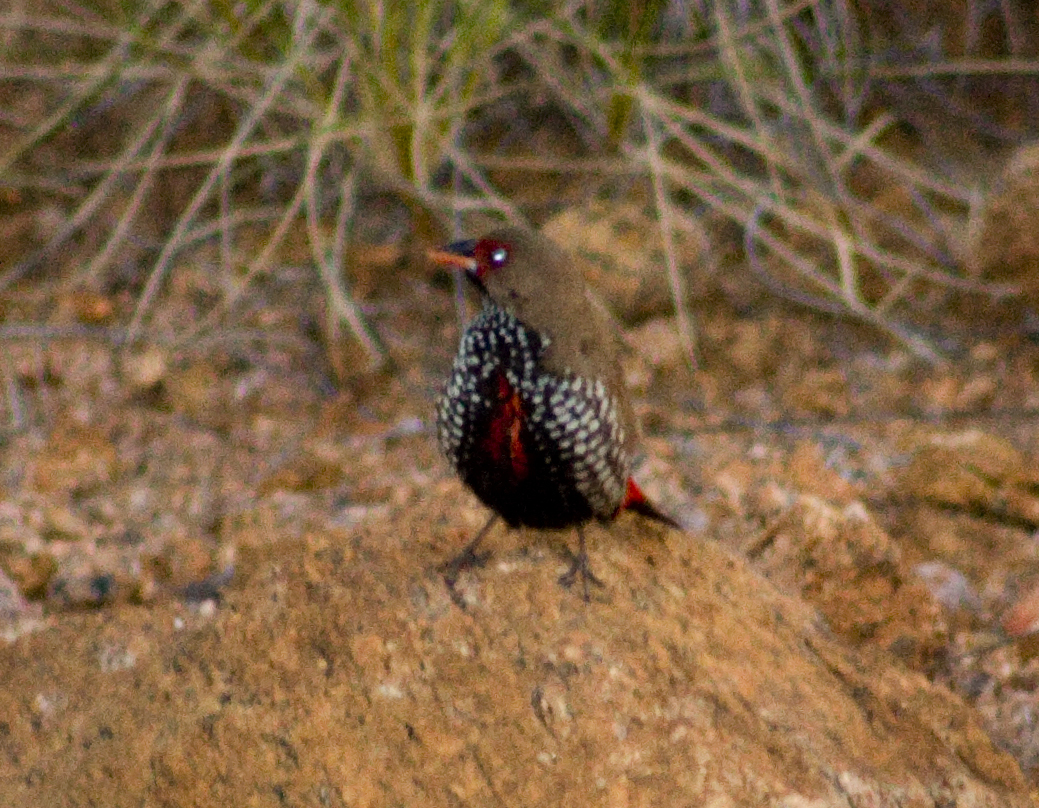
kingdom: Animalia
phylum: Chordata
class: Aves
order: Passeriformes
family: Estrildidae
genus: Emblema
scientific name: Emblema pictum
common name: Painted finch
